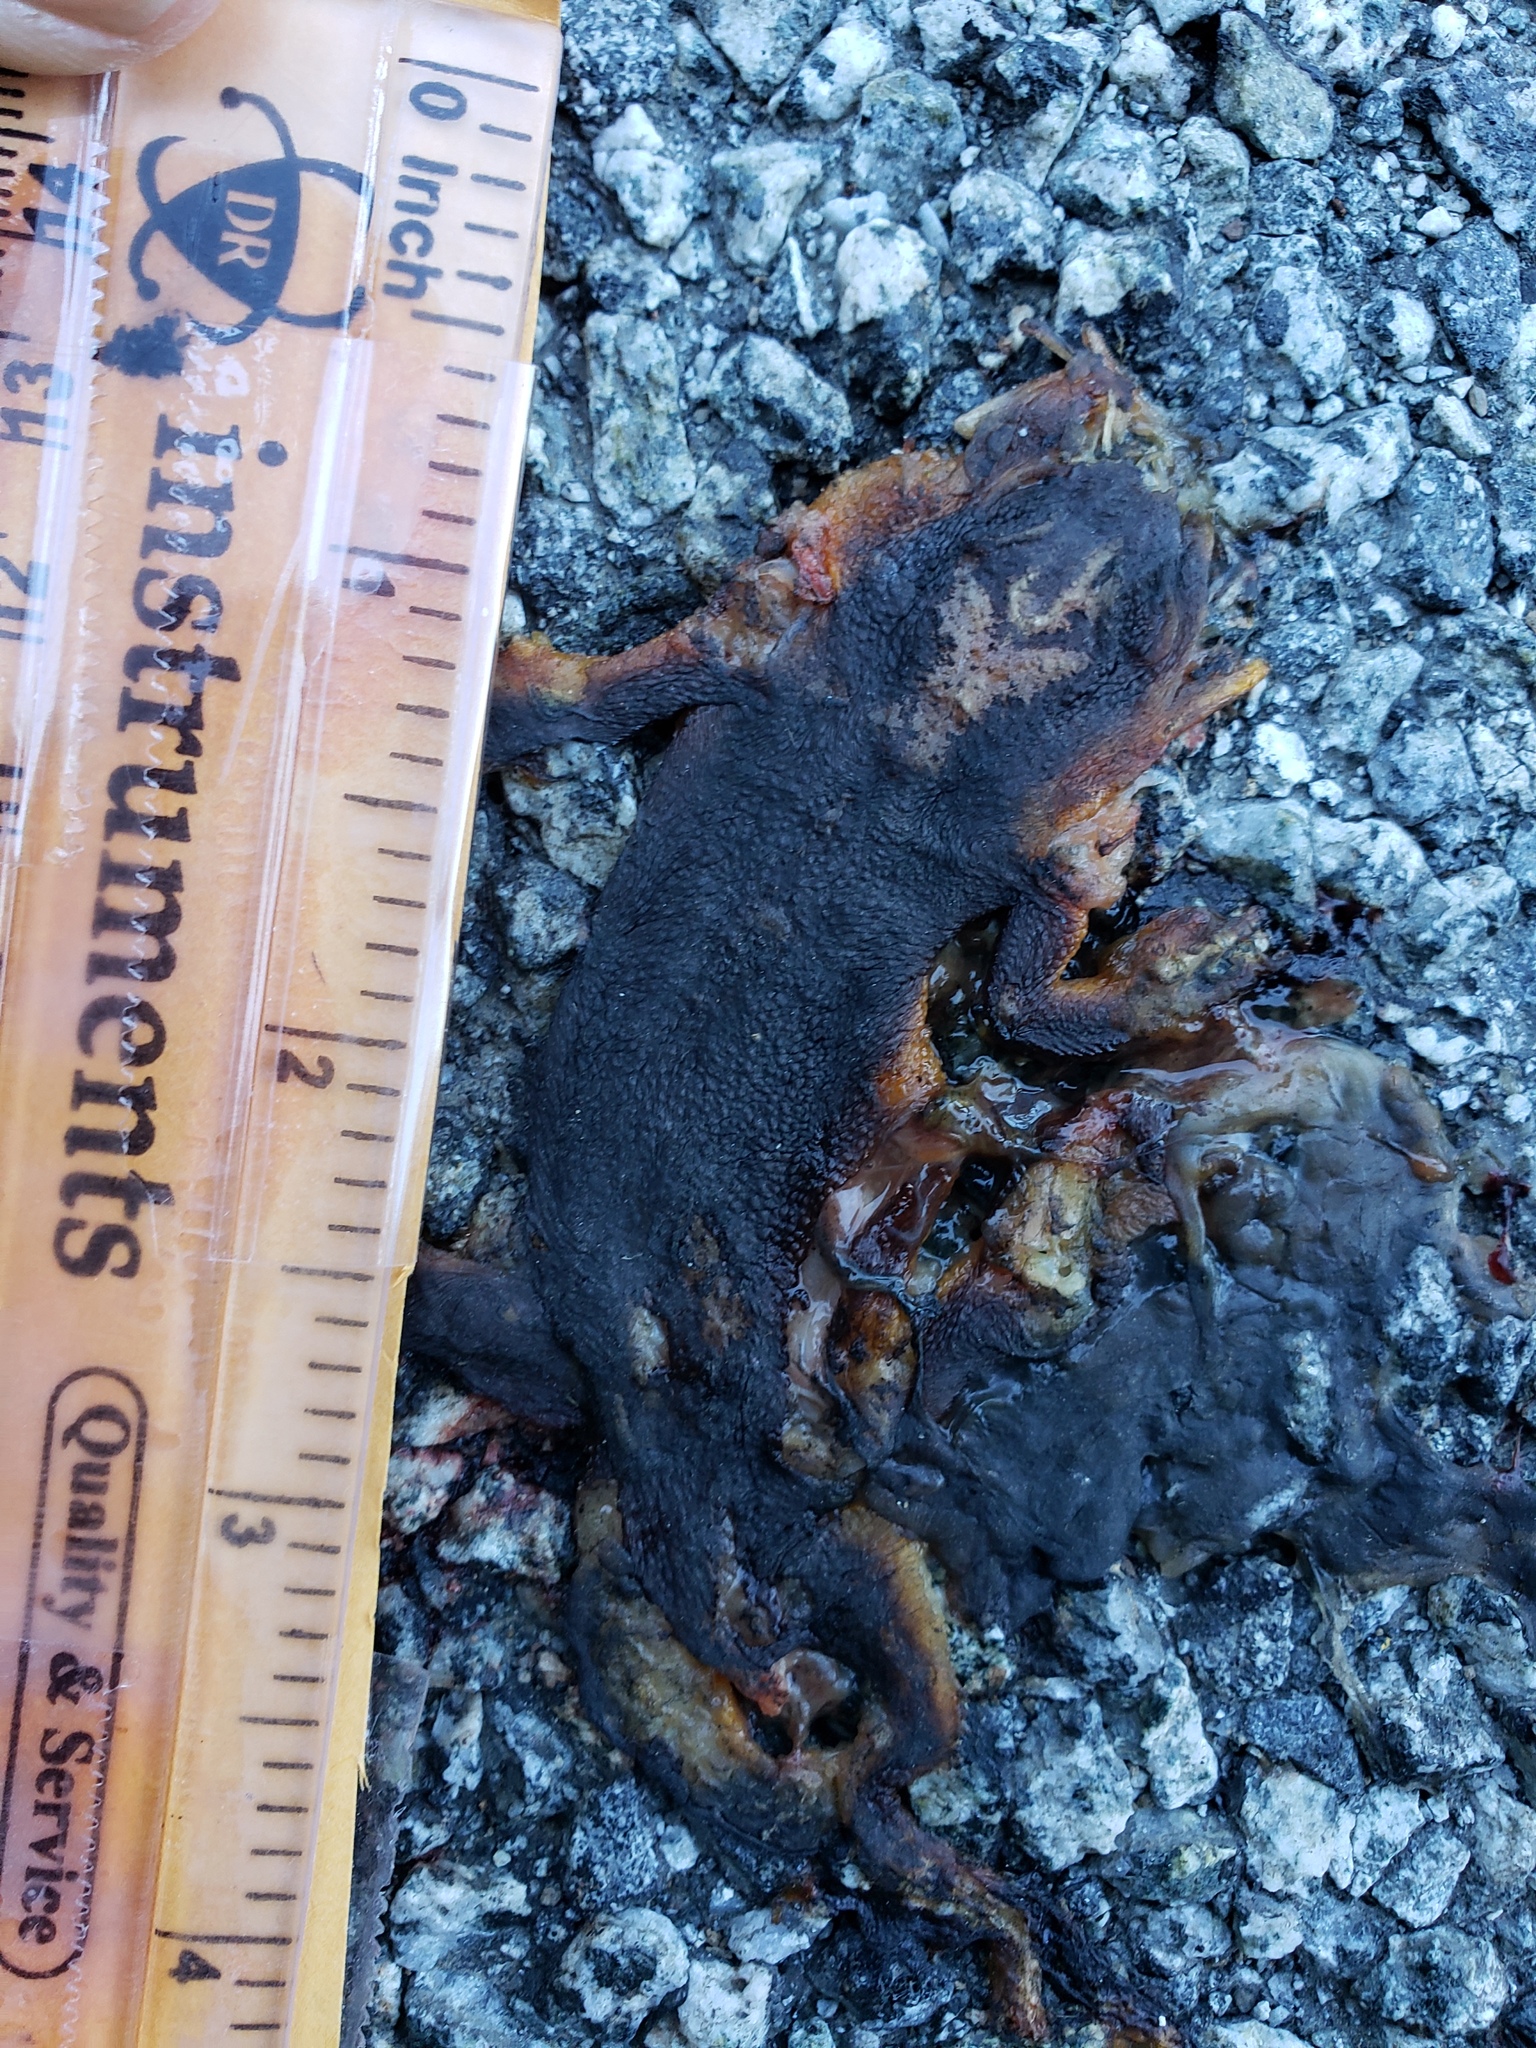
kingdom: Animalia
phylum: Chordata
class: Amphibia
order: Caudata
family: Salamandridae
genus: Taricha
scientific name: Taricha
